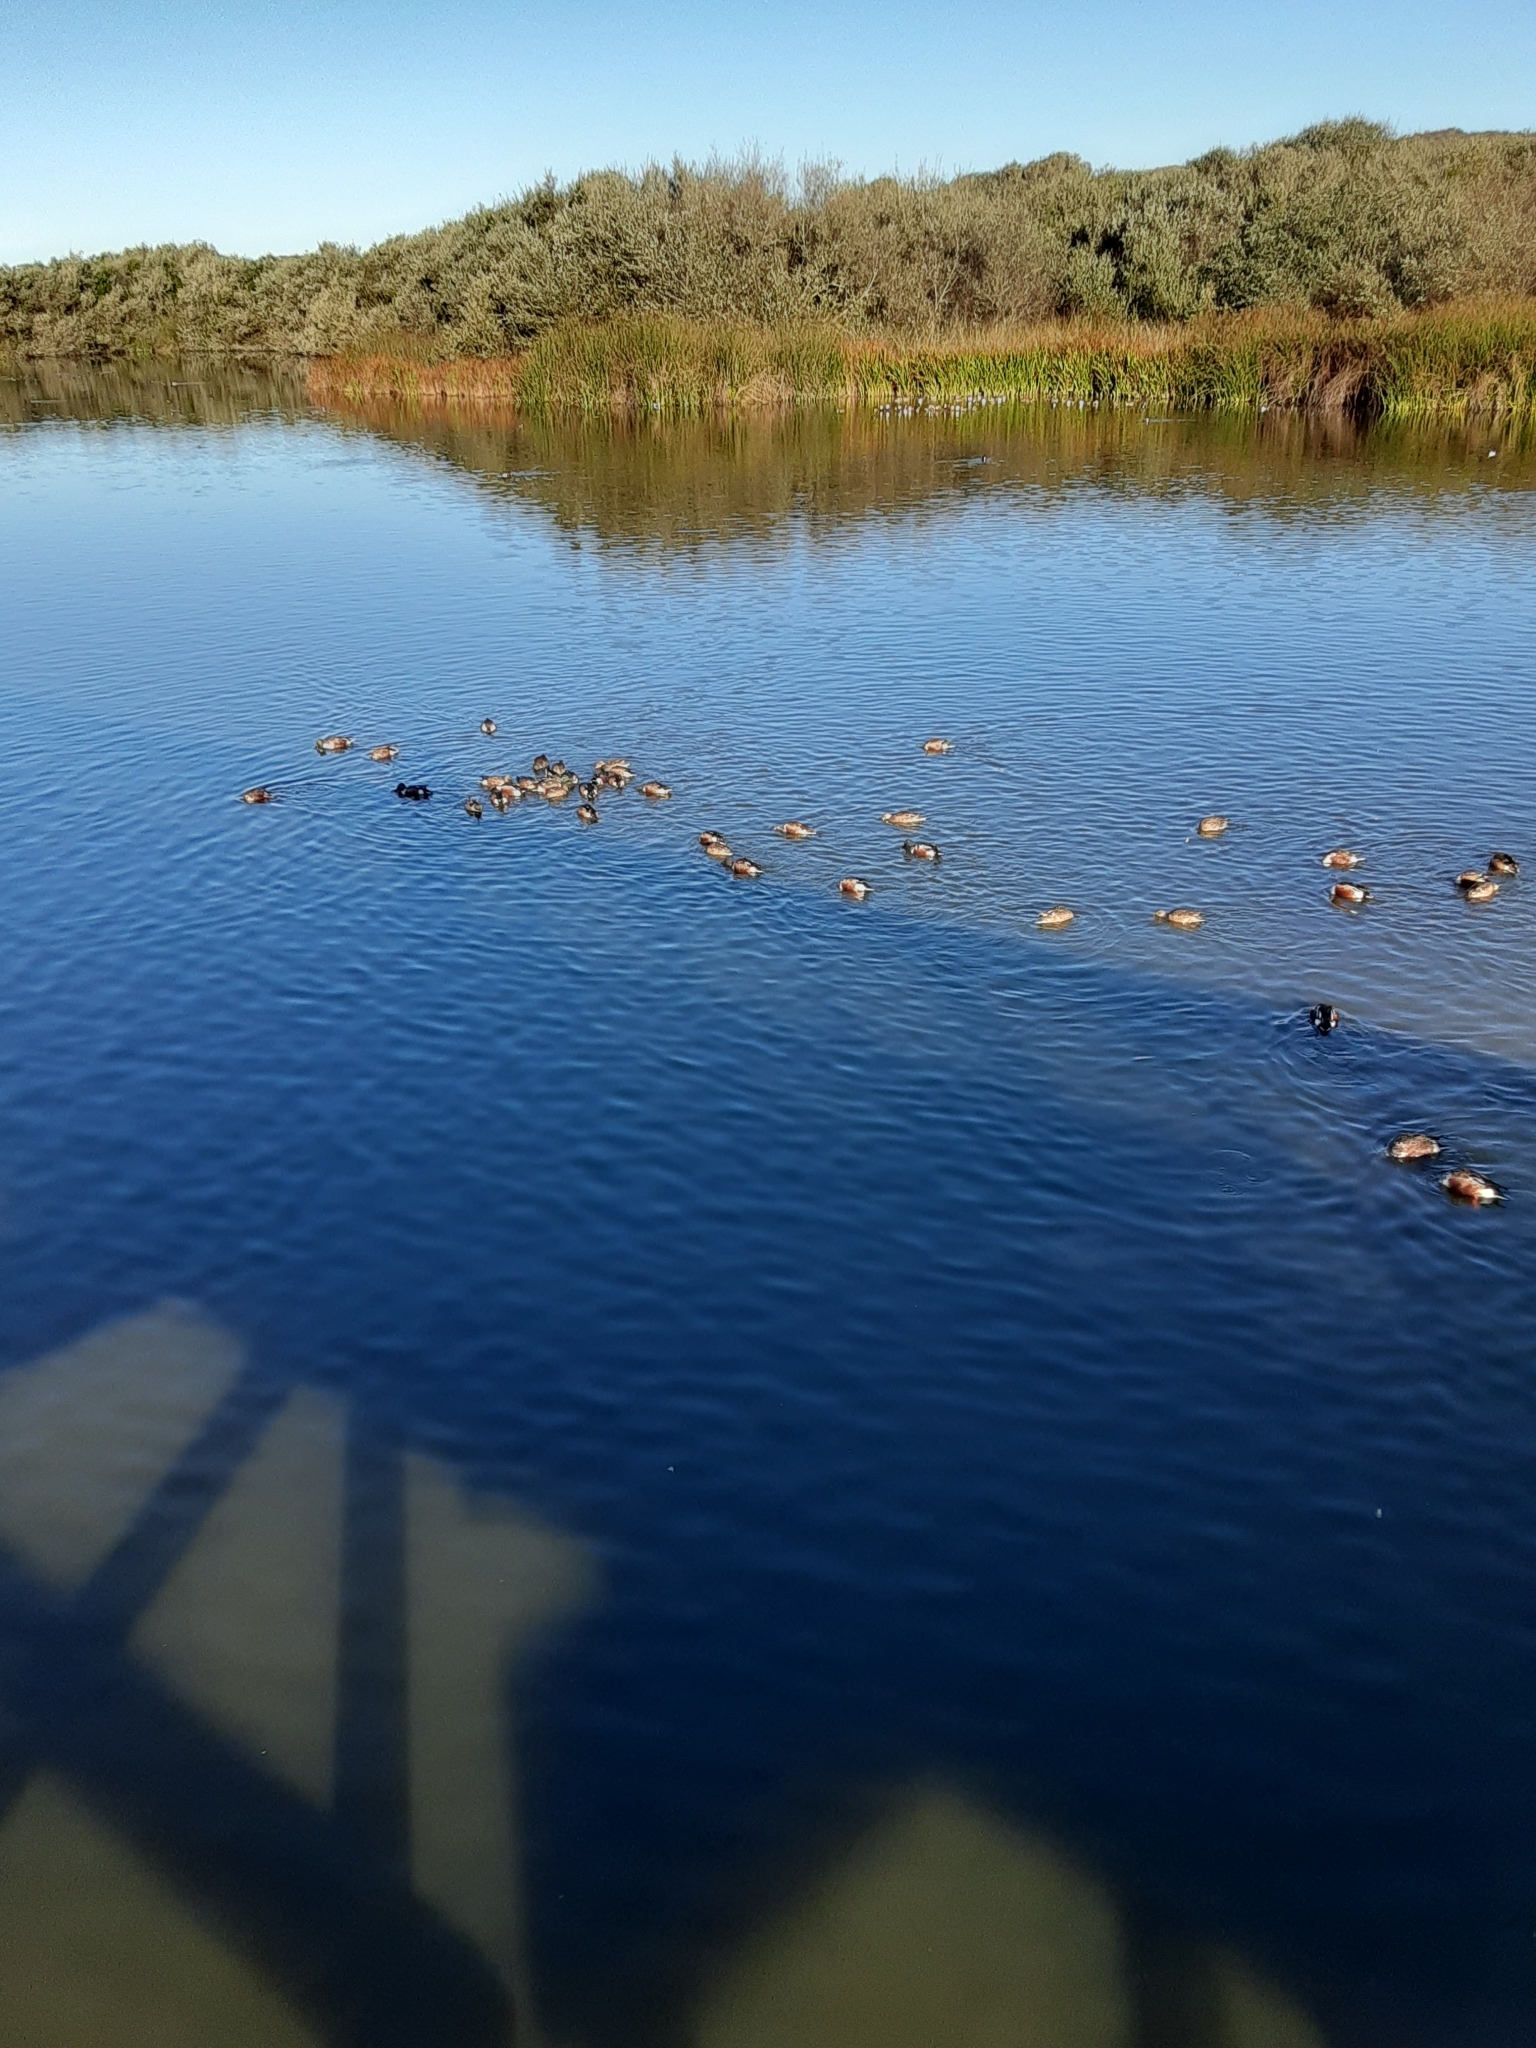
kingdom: Animalia
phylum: Chordata
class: Aves
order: Anseriformes
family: Anatidae
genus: Spatula
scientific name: Spatula clypeata
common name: Northern shoveler
